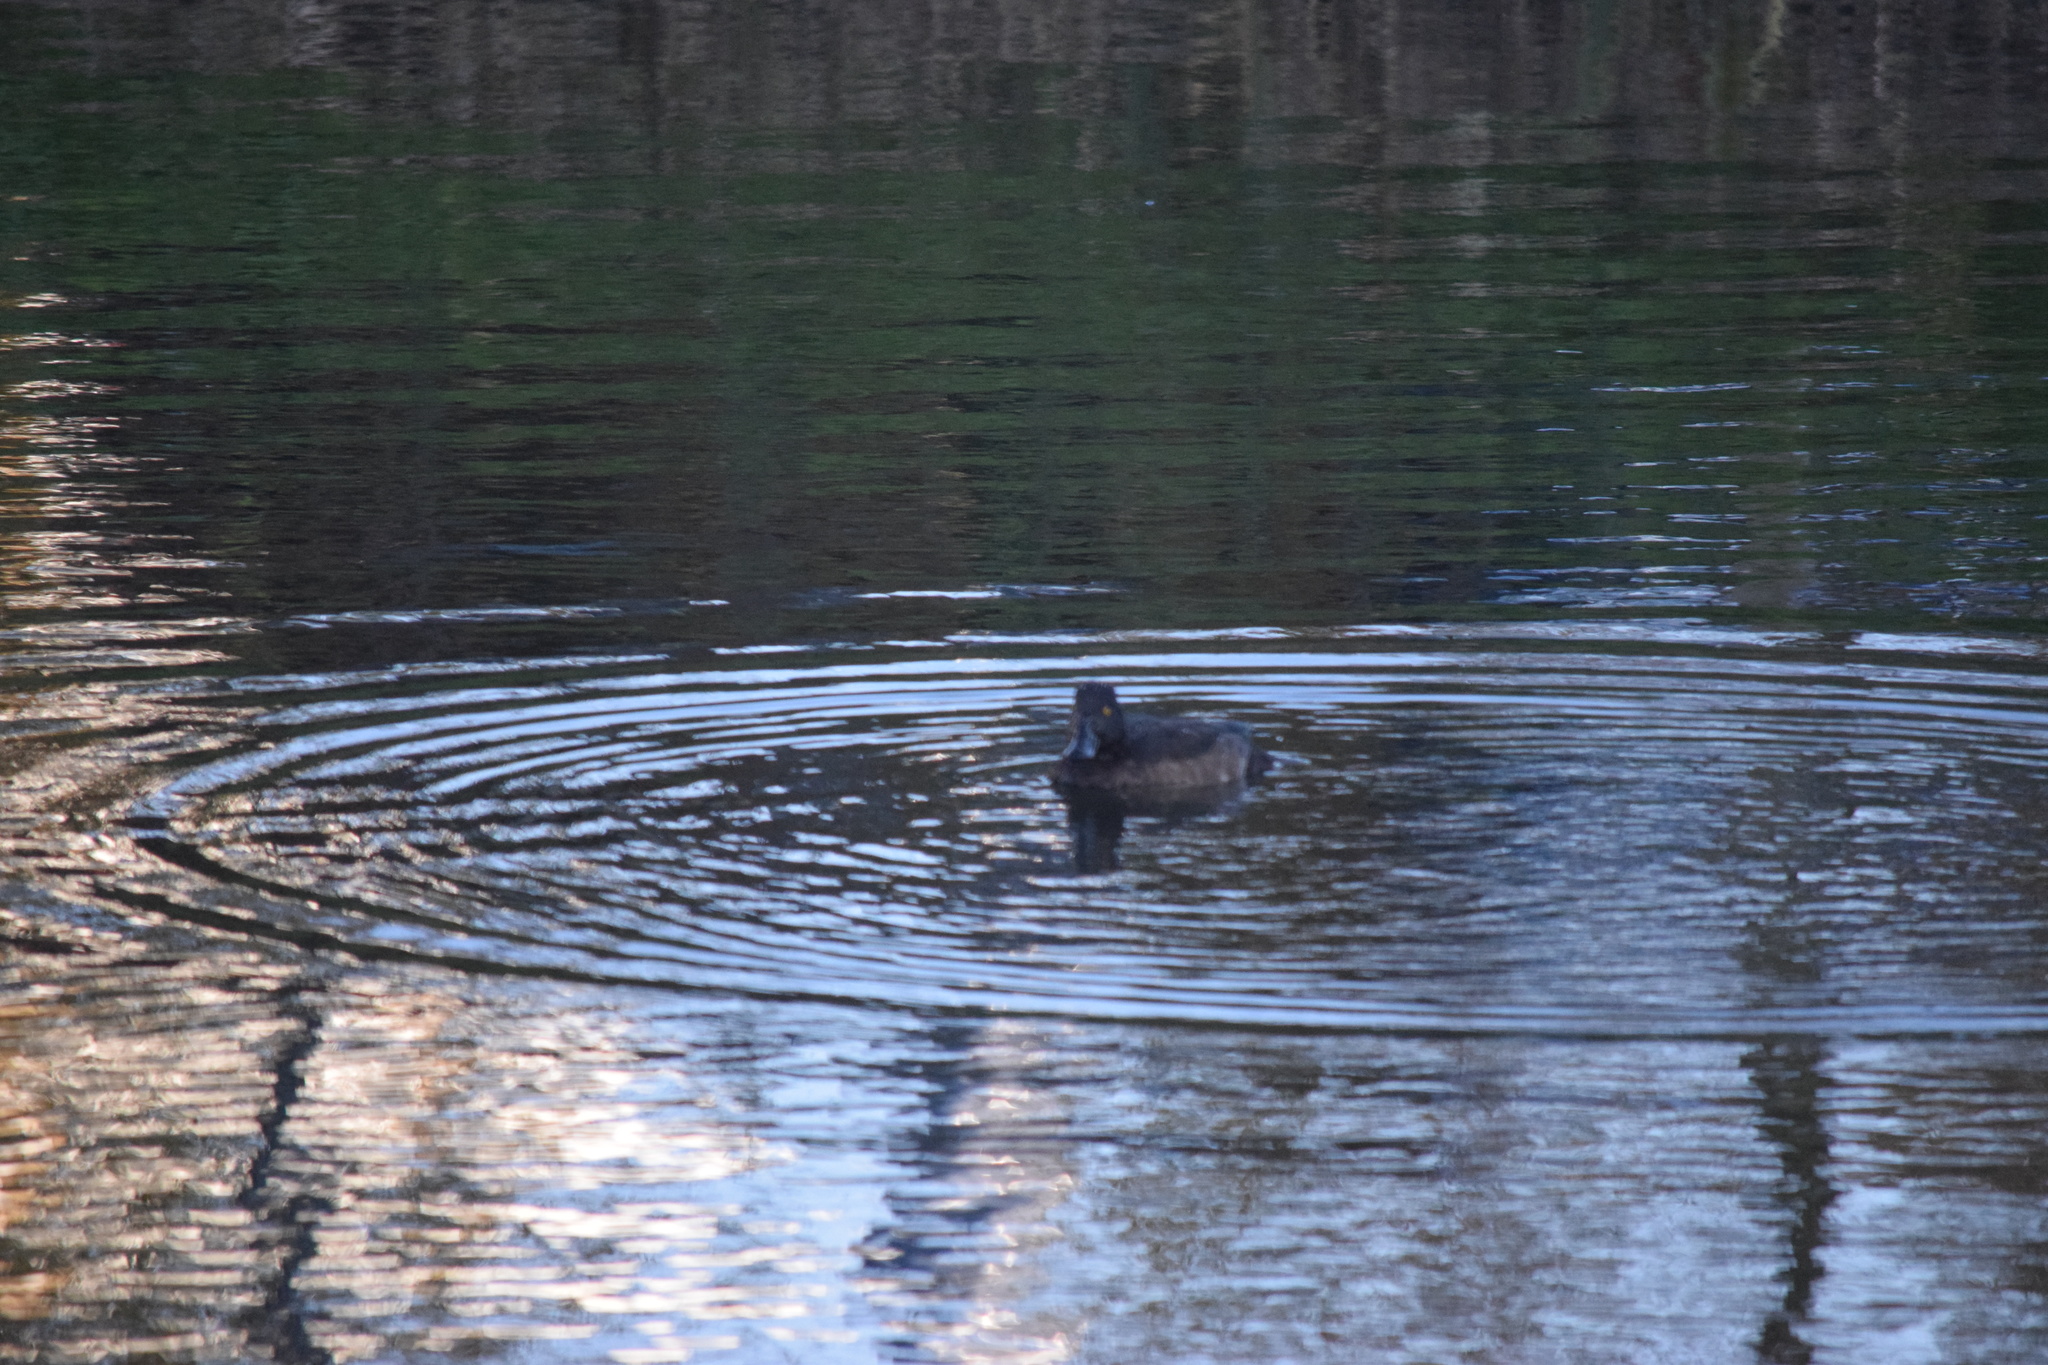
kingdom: Animalia
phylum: Chordata
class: Aves
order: Anseriformes
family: Anatidae
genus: Aythya
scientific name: Aythya fuligula
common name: Tufted duck
